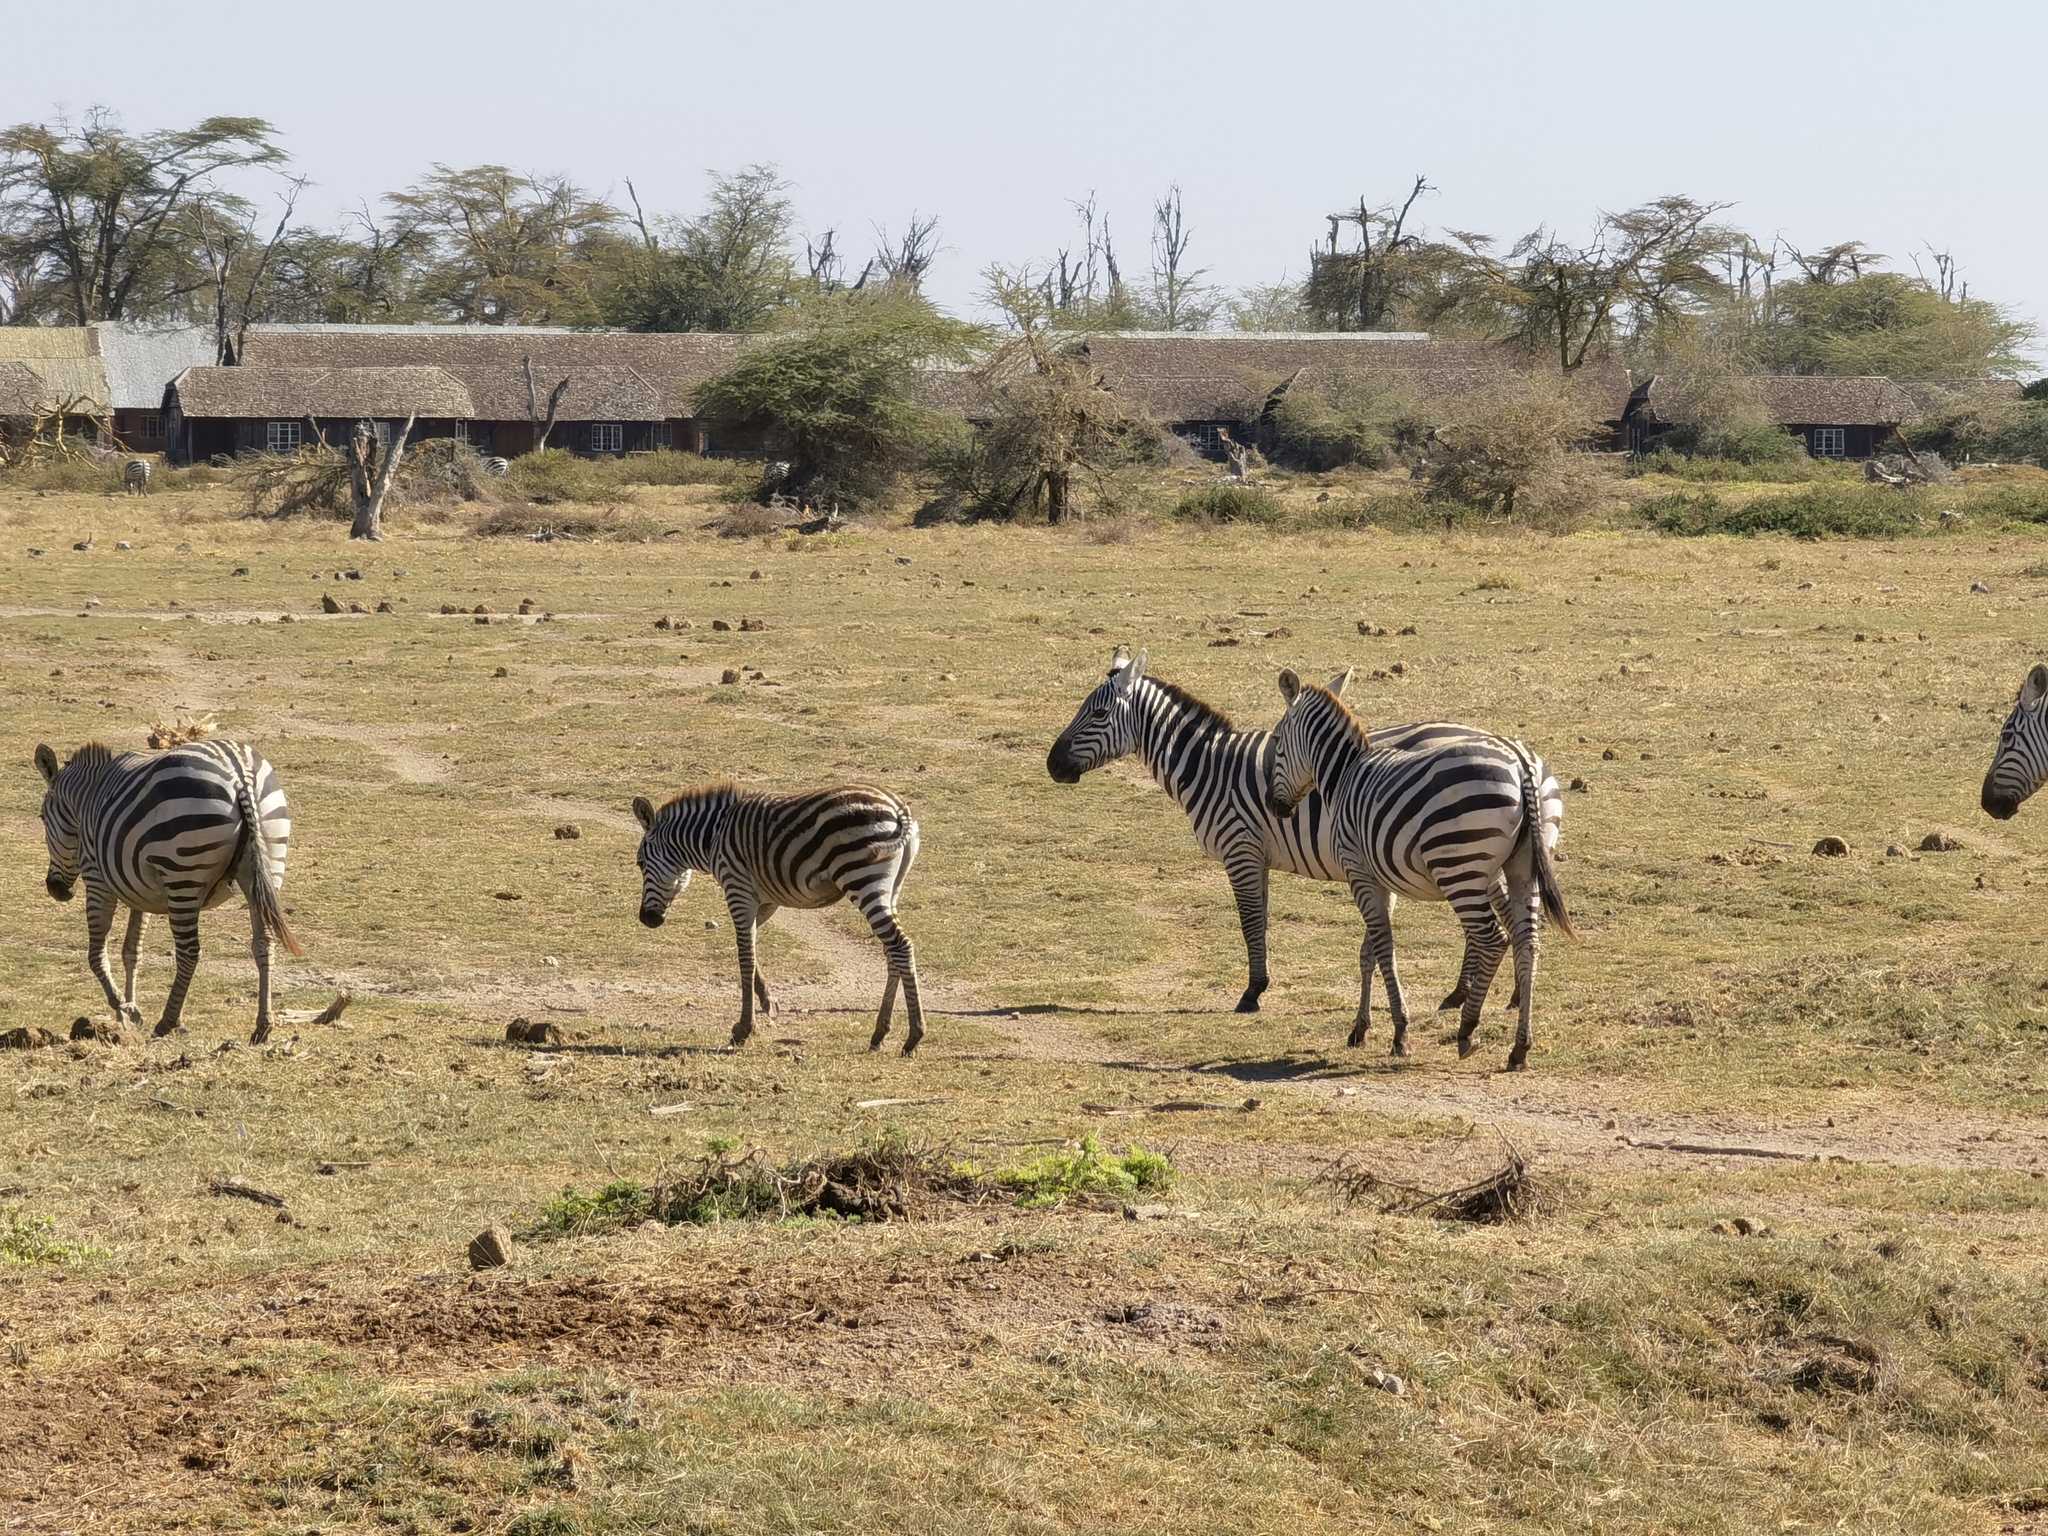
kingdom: Animalia
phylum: Chordata
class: Mammalia
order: Perissodactyla
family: Equidae
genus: Equus
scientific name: Equus quagga
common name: Plains zebra
